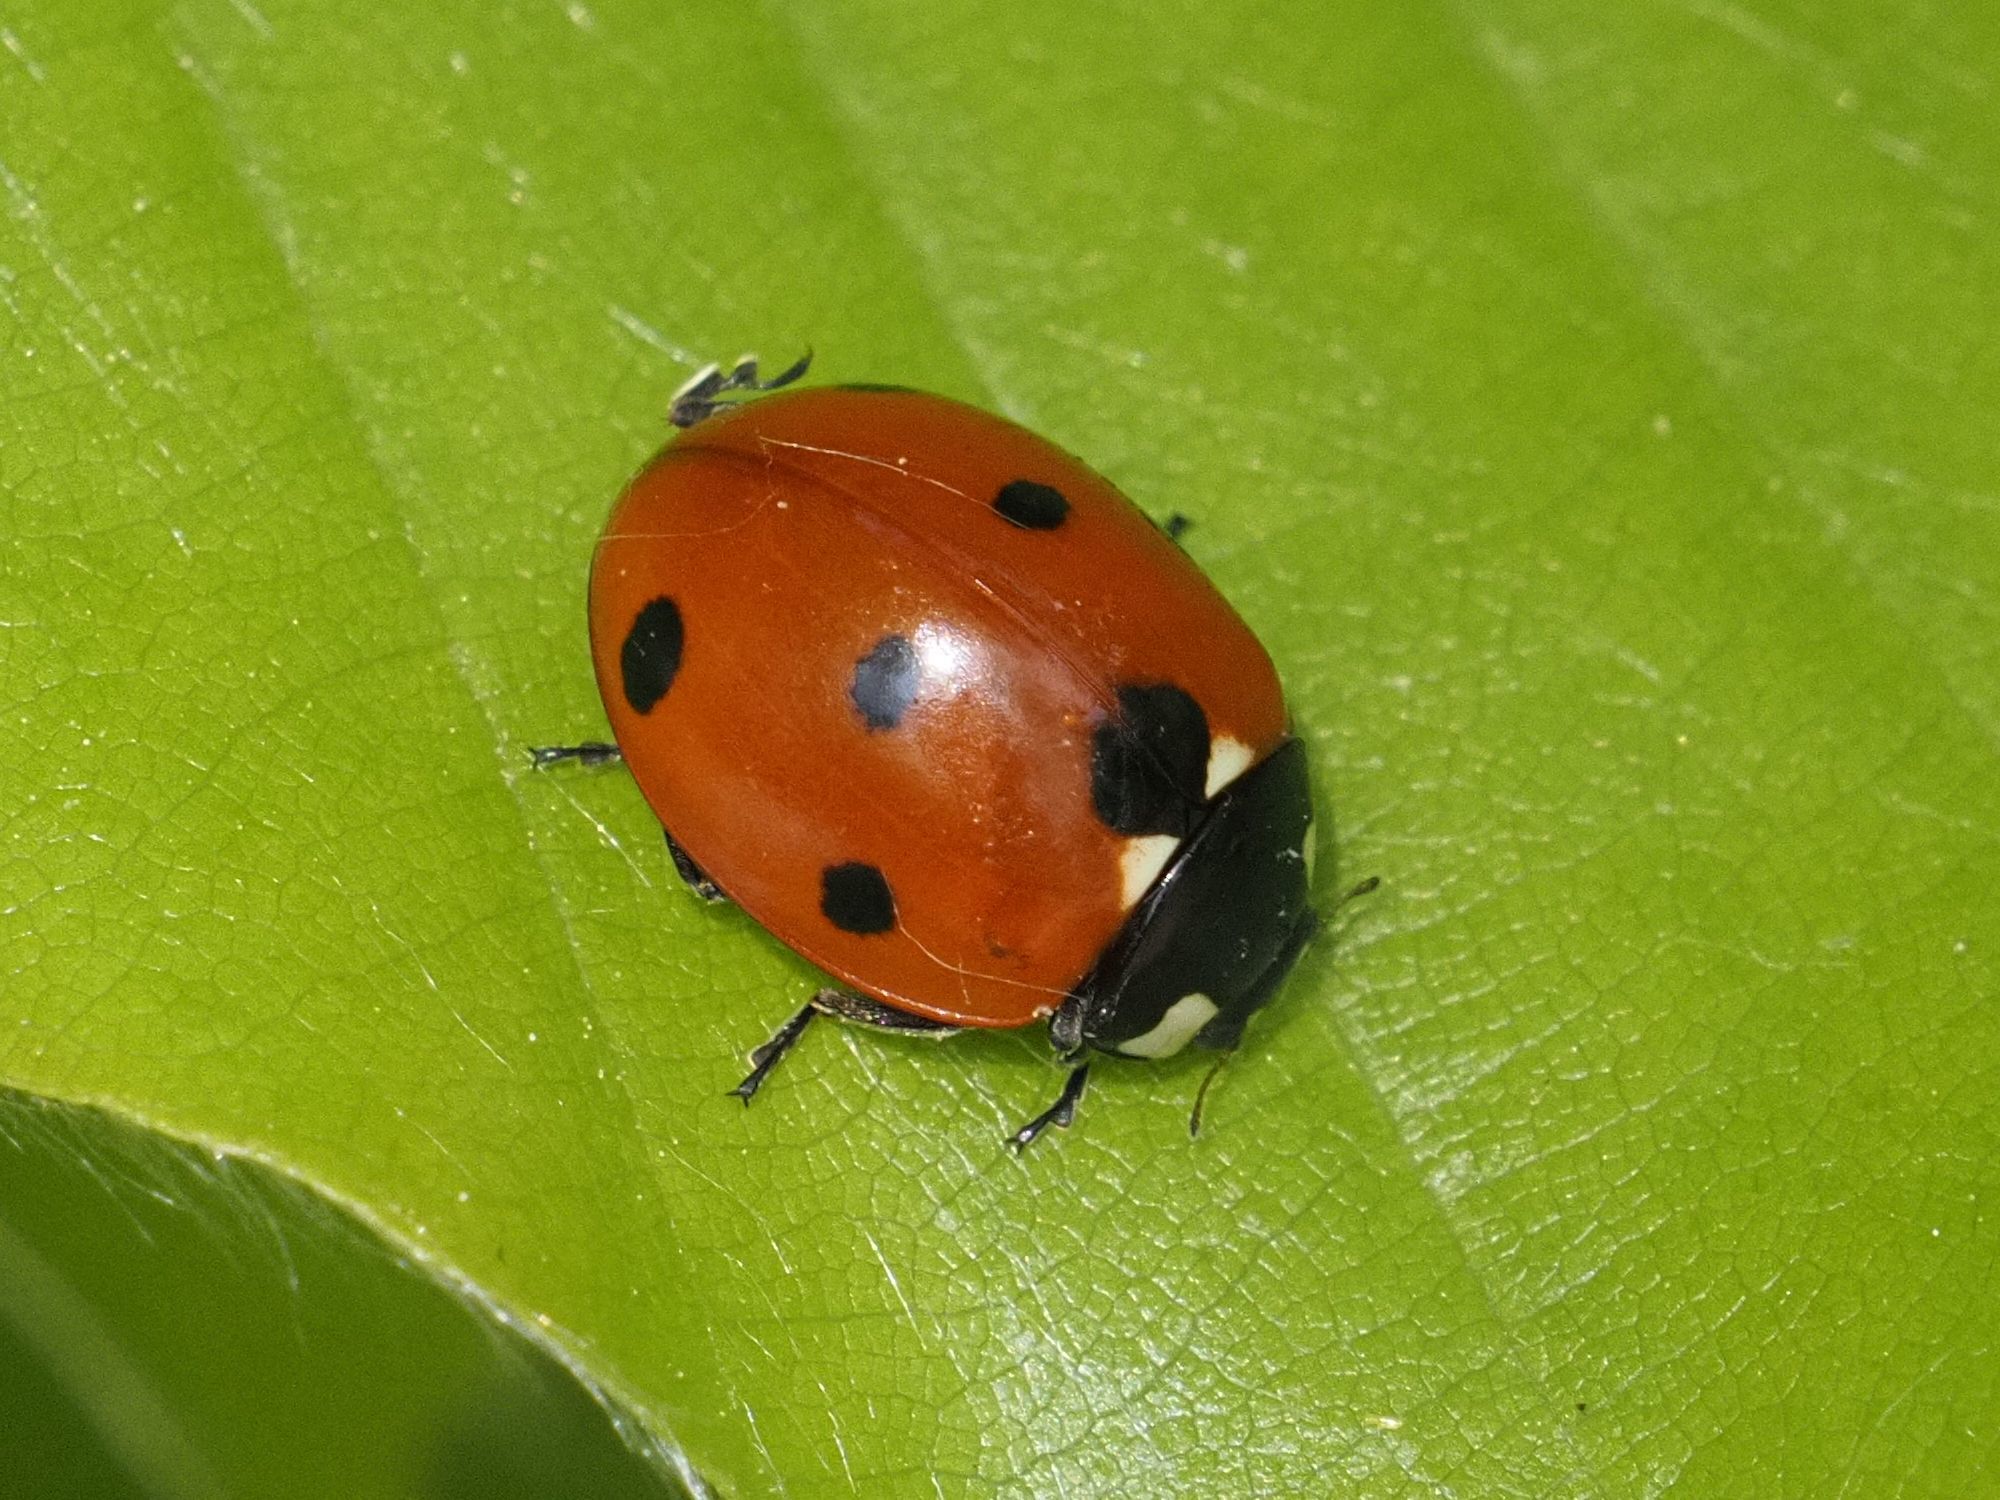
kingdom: Animalia
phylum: Arthropoda
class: Insecta
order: Coleoptera
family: Coccinellidae
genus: Coccinella
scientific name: Coccinella septempunctata
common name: Sevenspotted lady beetle
